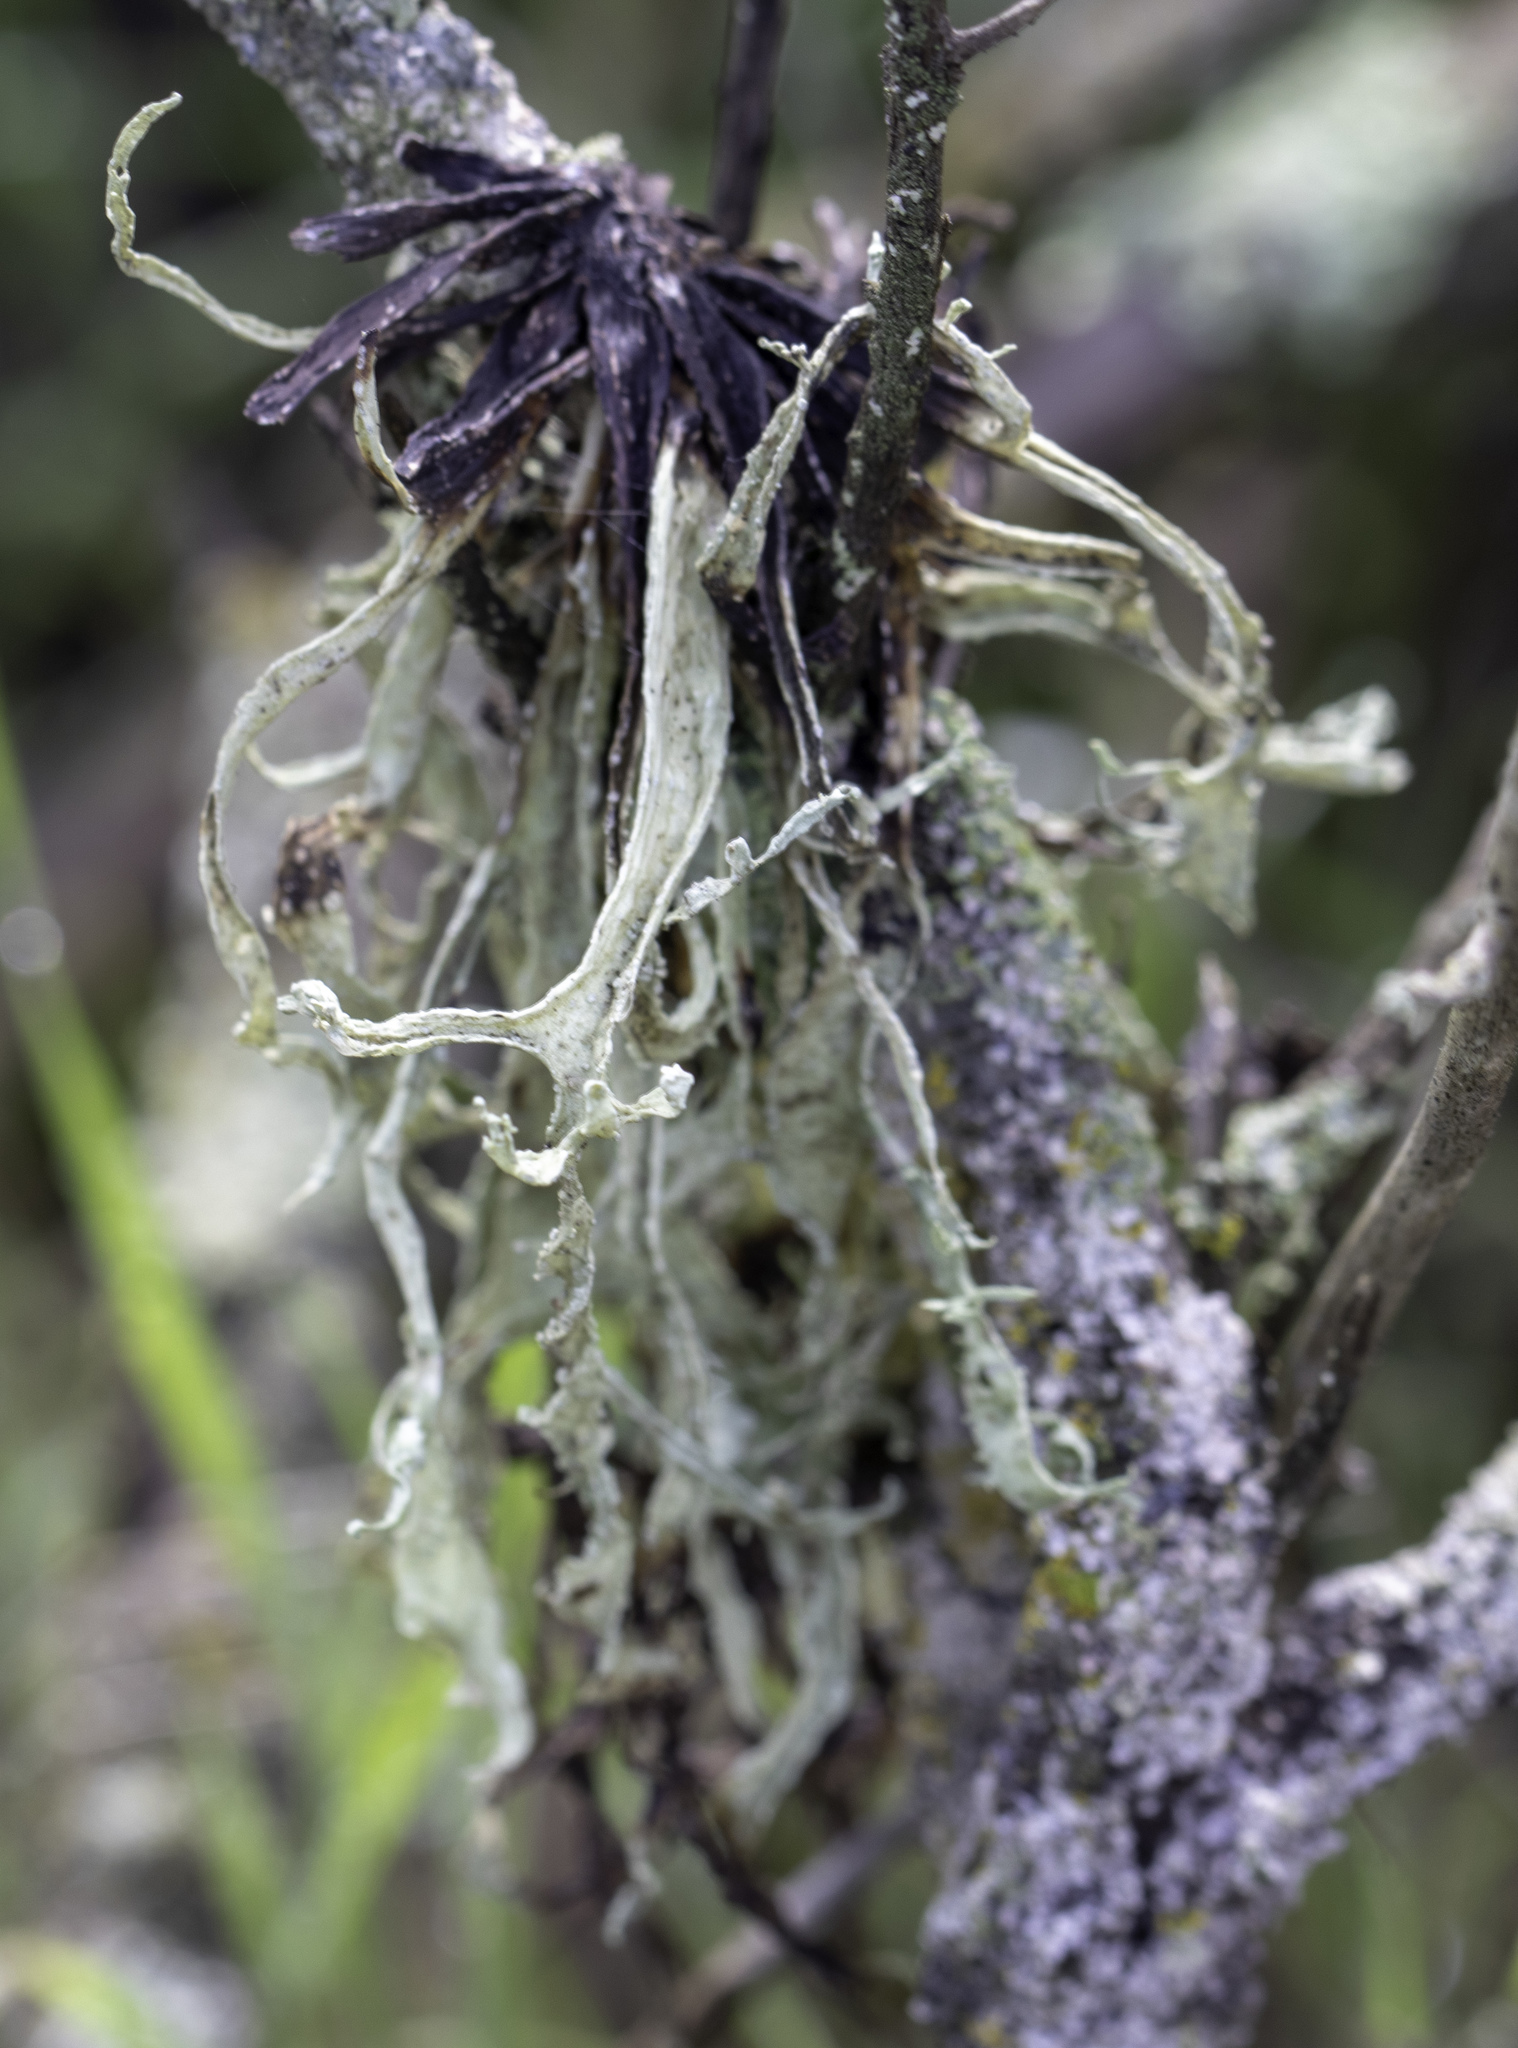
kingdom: Fungi
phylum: Ascomycota
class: Lecanoromycetes
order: Lecanorales
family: Ramalinaceae
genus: Ramalina
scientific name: Ramalina leptocarpha
